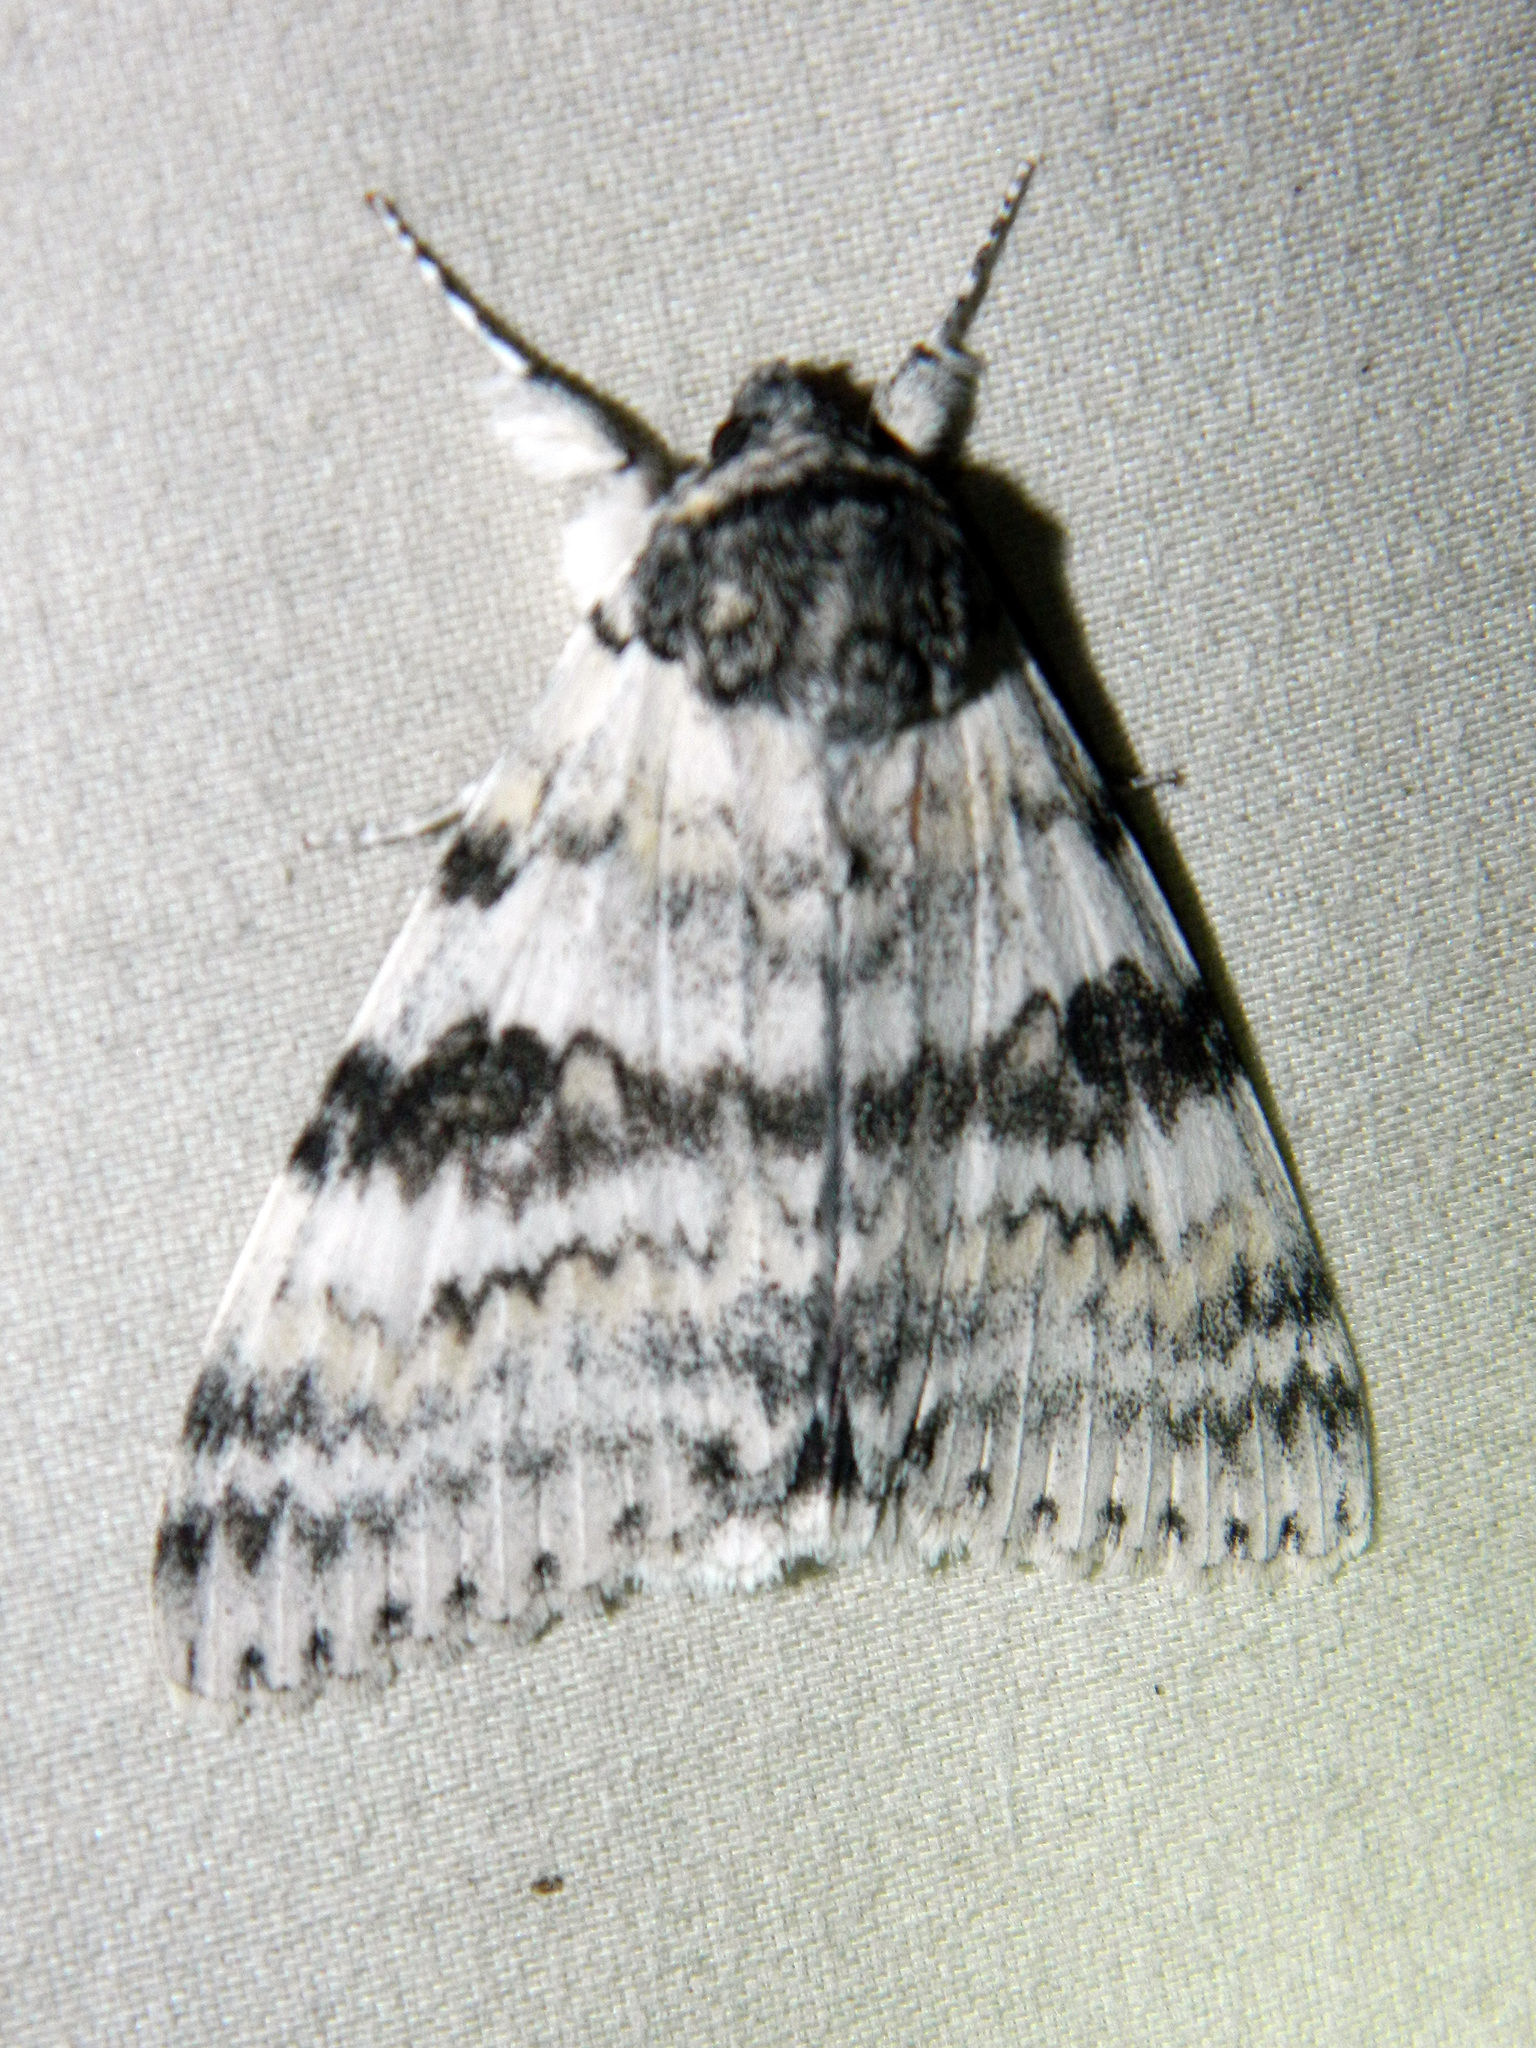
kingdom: Animalia
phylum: Arthropoda
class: Insecta
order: Lepidoptera
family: Erebidae
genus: Catocala
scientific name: Catocala relicta
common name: White underwing
